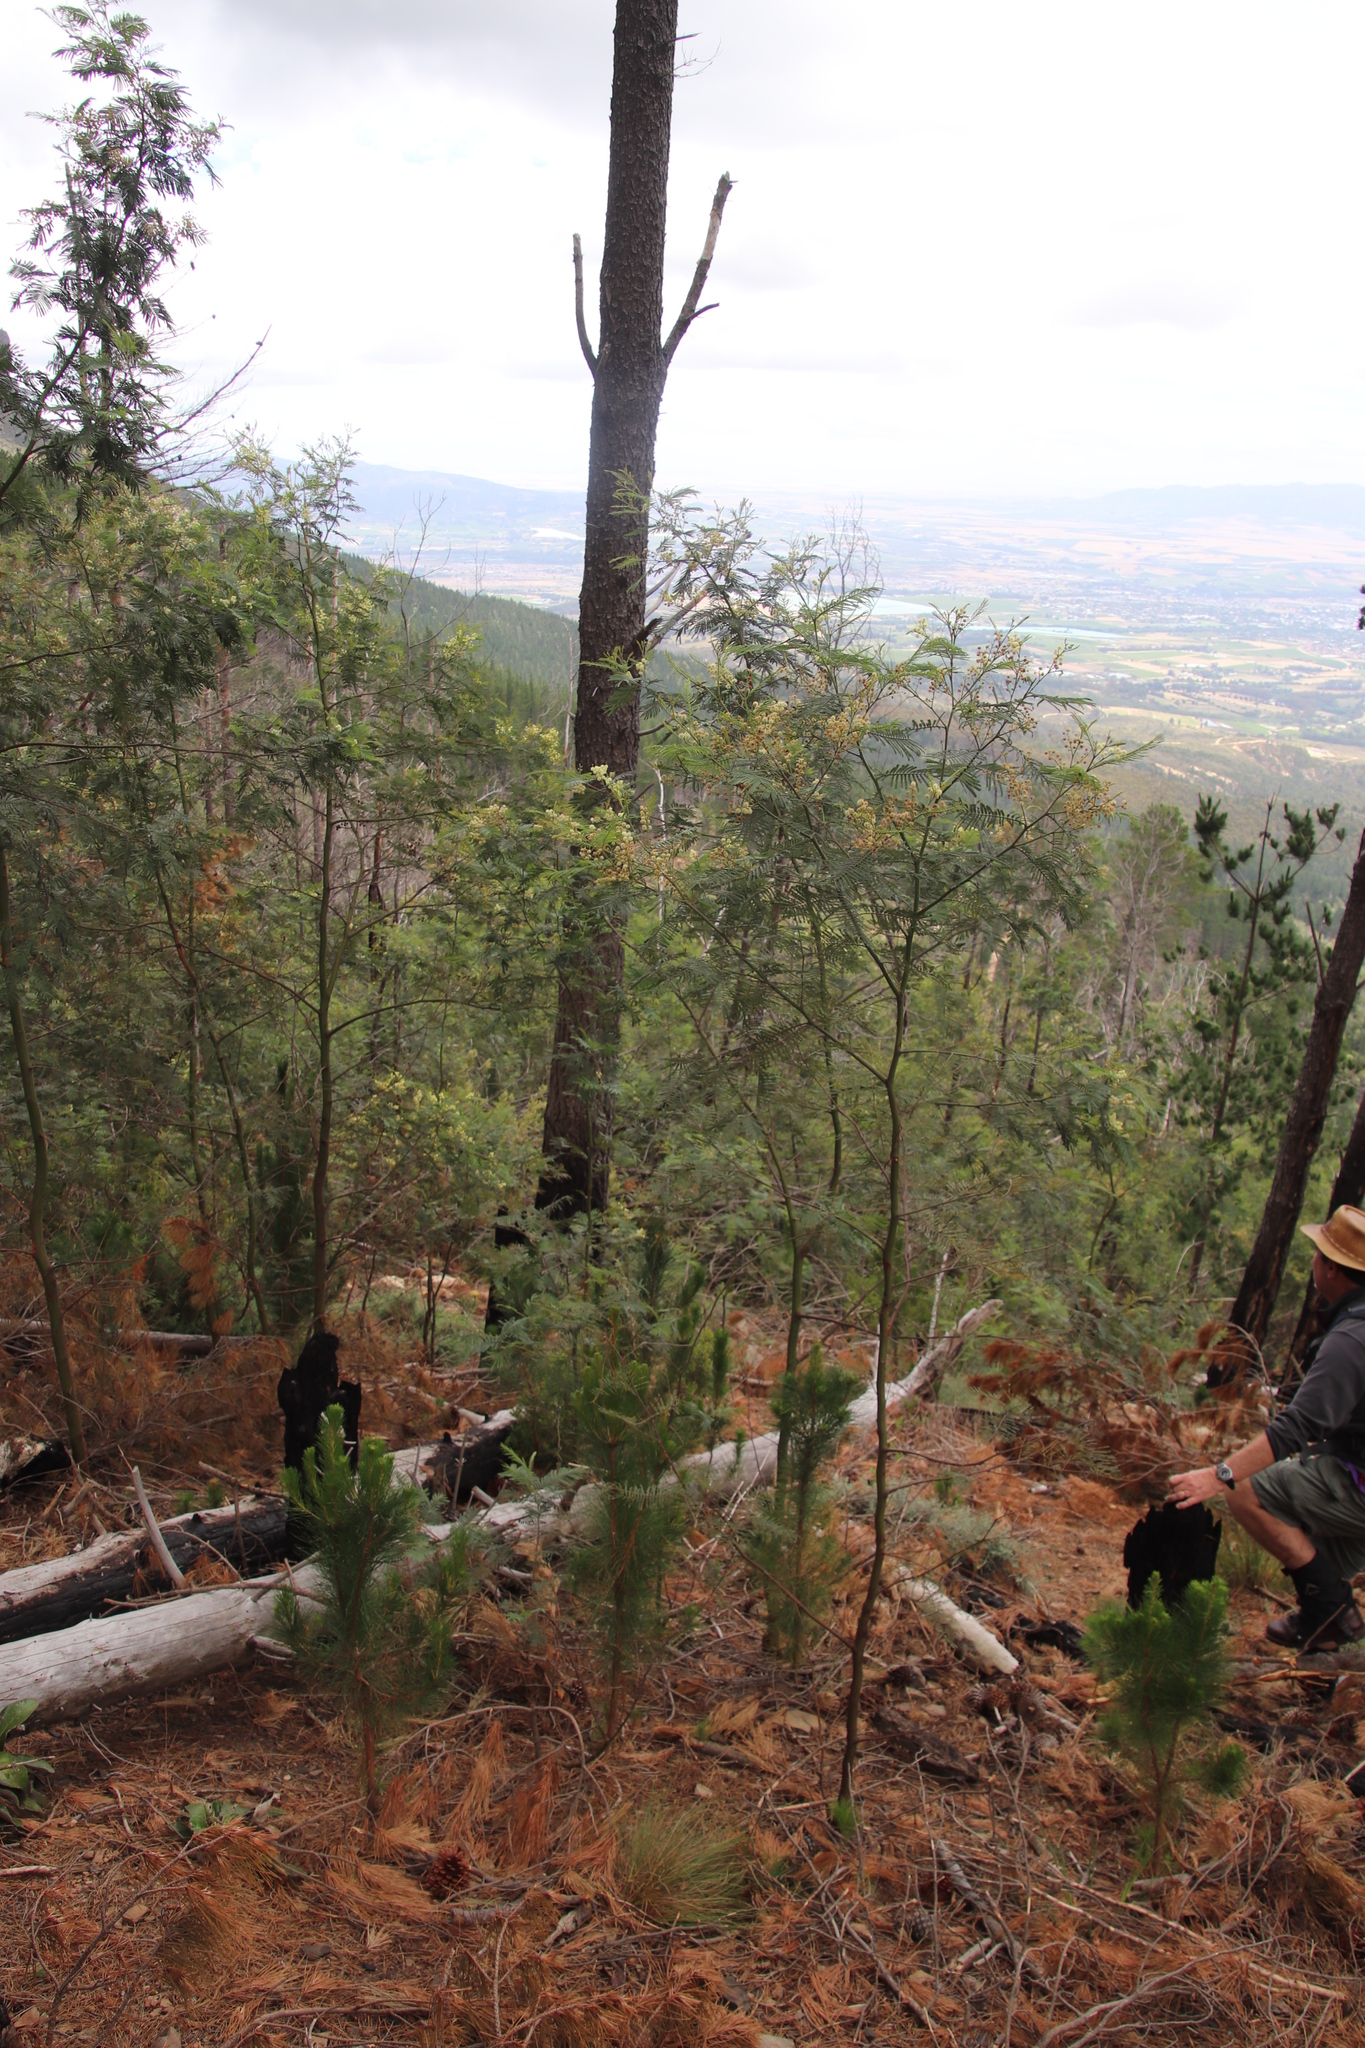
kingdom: Plantae
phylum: Tracheophyta
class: Magnoliopsida
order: Fabales
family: Fabaceae
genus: Acacia
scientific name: Acacia mearnsii
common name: Black wattle
